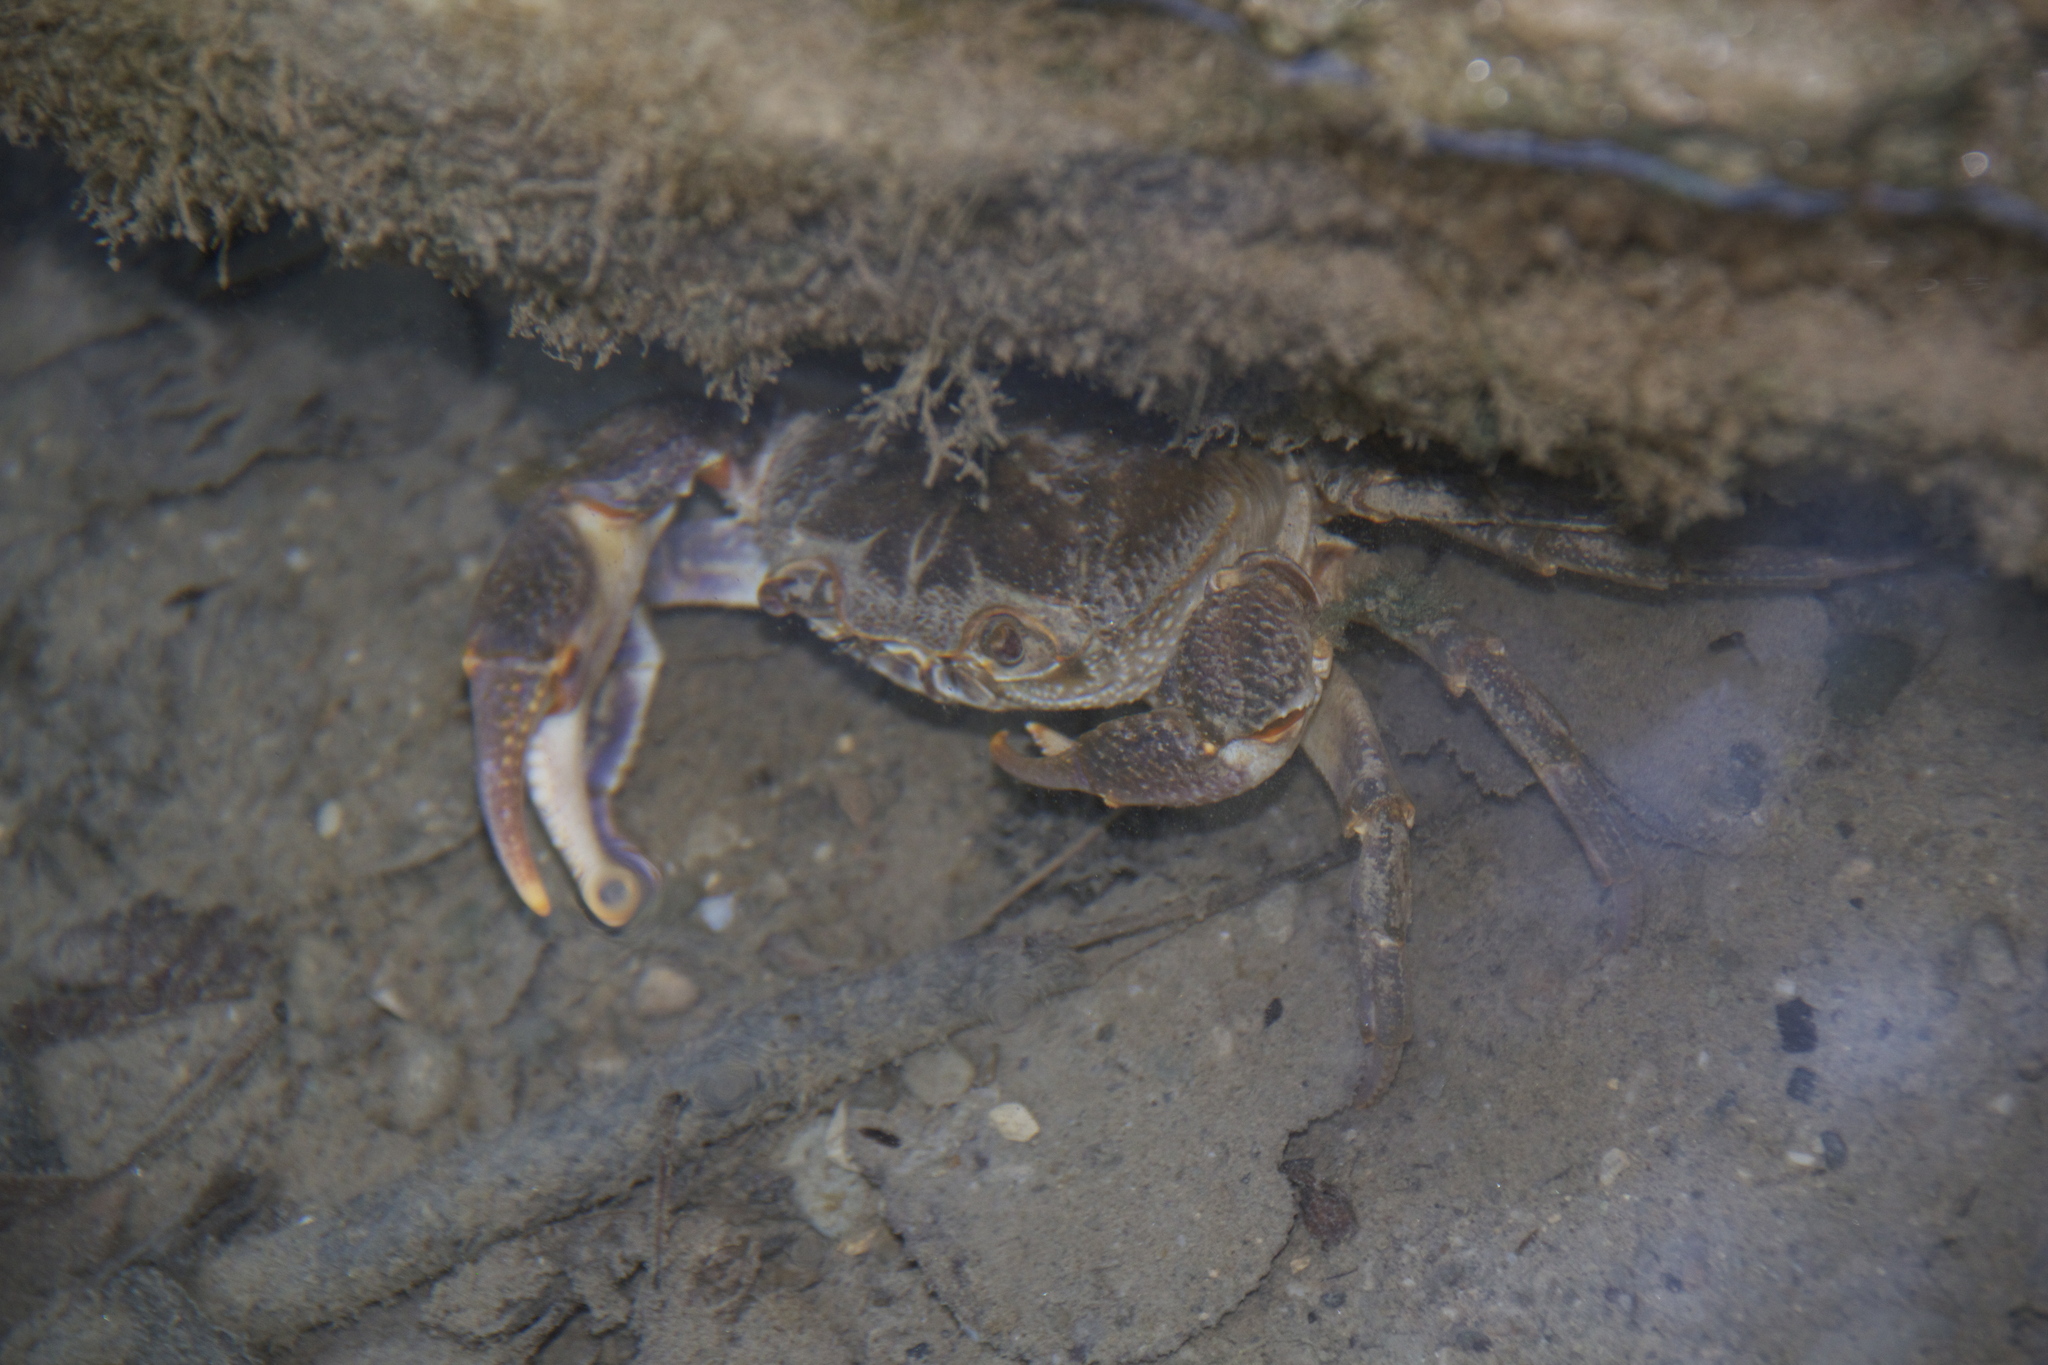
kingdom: Animalia
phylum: Arthropoda
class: Malacostraca
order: Decapoda
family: Potamidae
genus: Potamon
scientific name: Potamon fluviatile
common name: Italian freshwater crab
